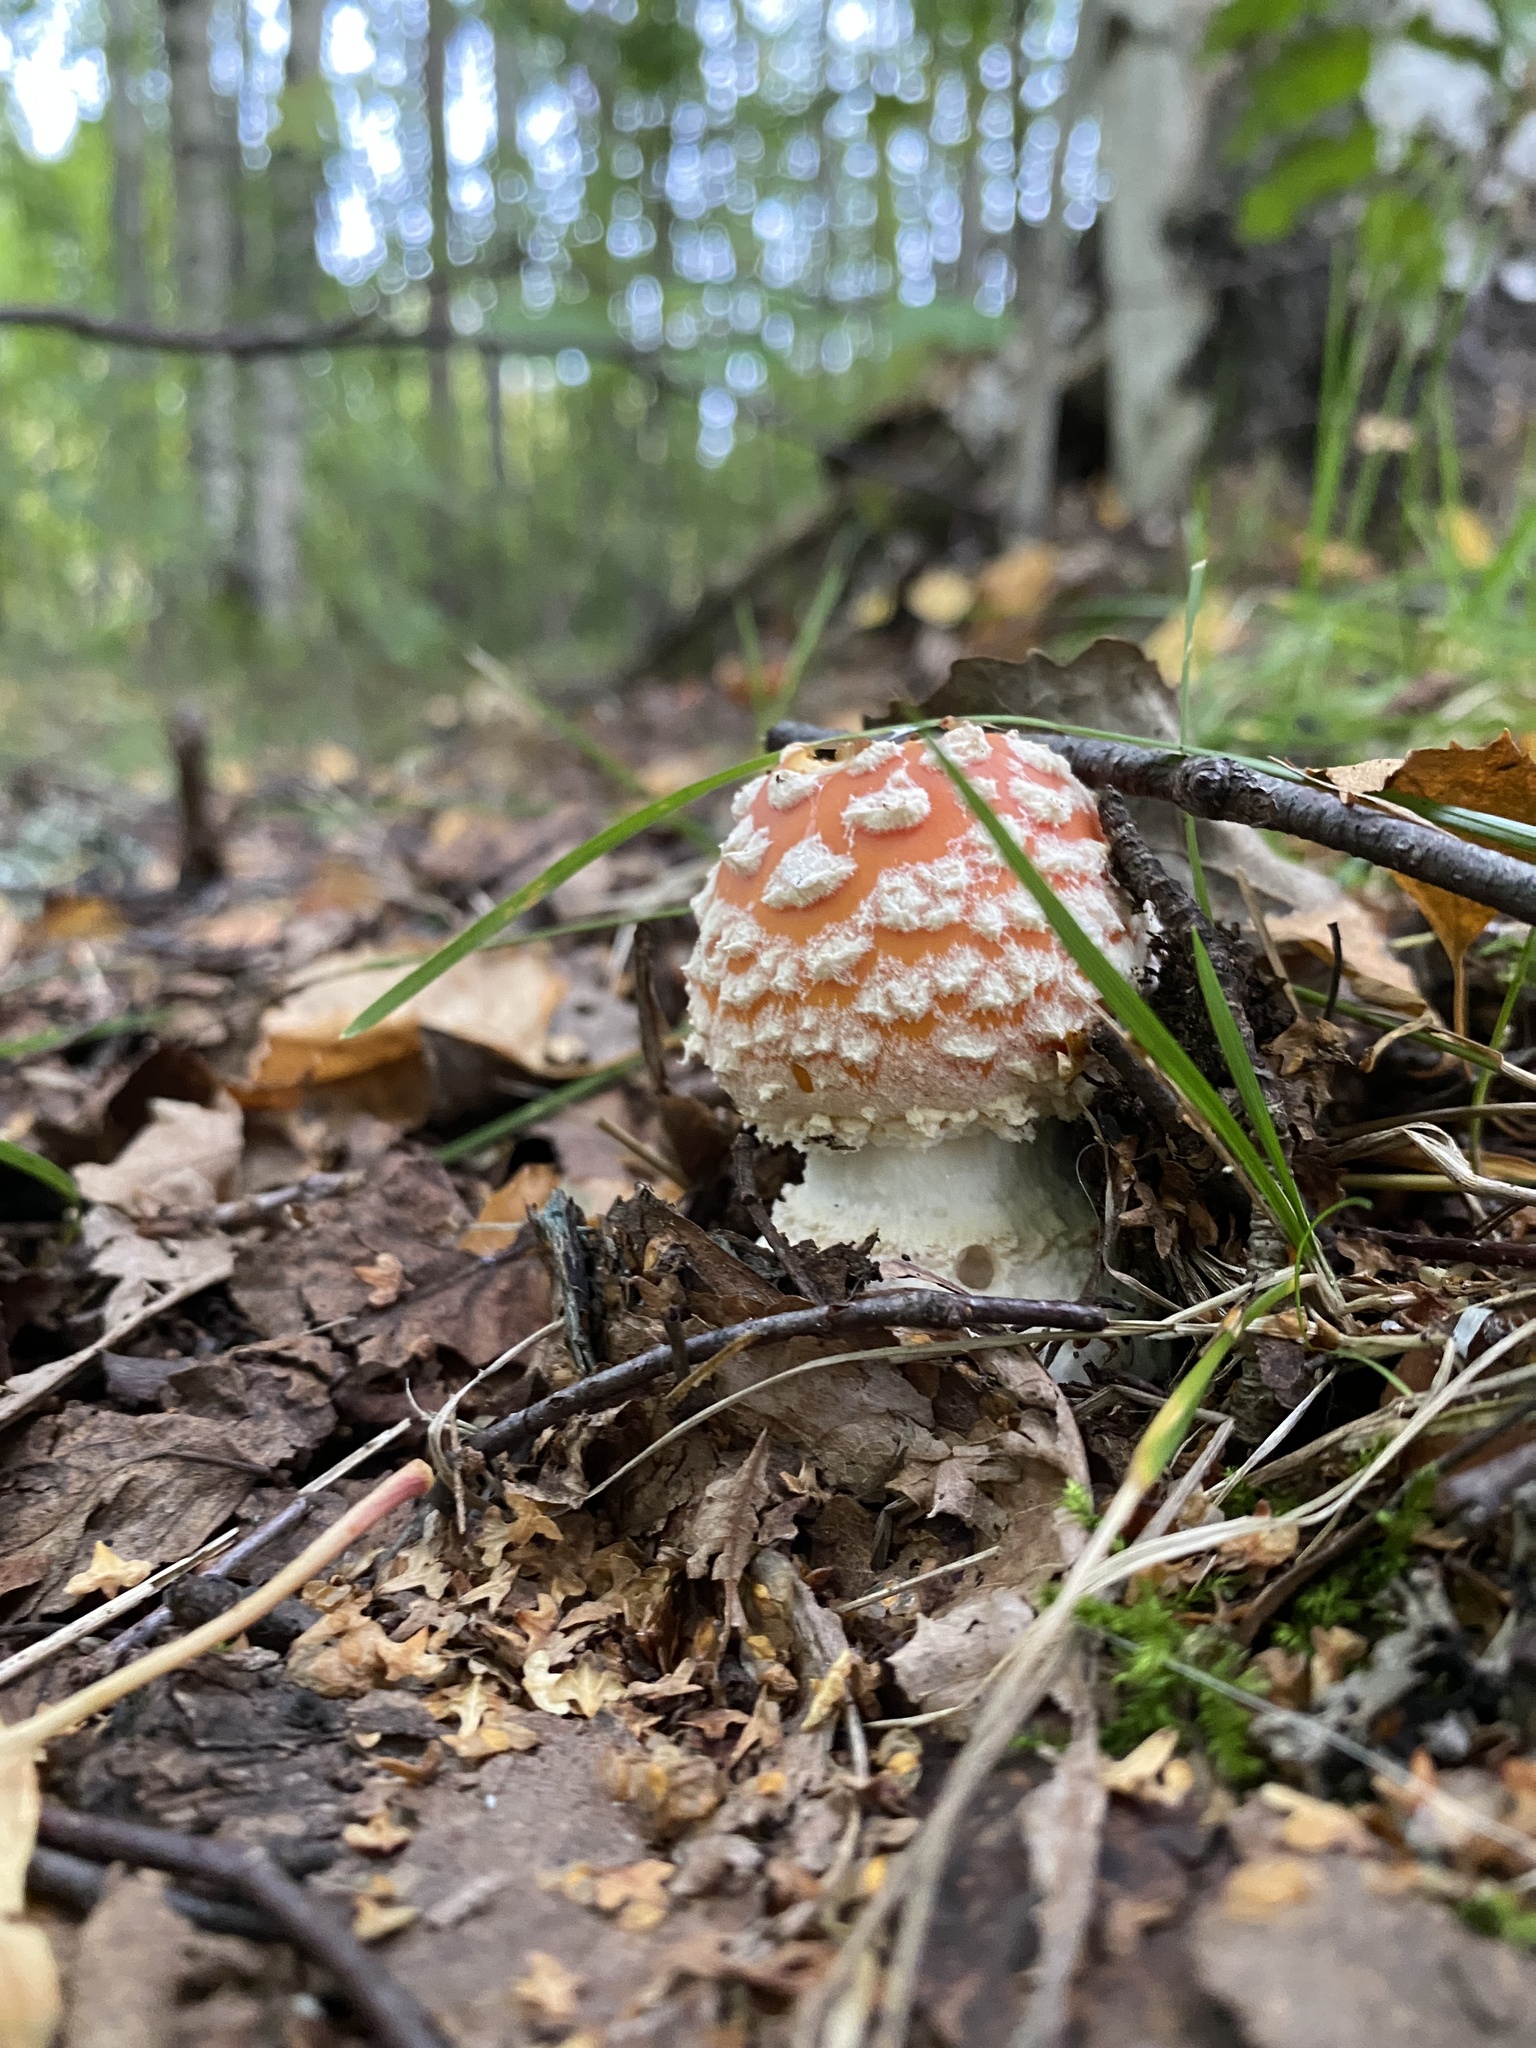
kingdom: Fungi
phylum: Basidiomycota
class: Agaricomycetes
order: Agaricales
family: Amanitaceae
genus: Amanita
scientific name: Amanita muscaria
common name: Fly agaric
